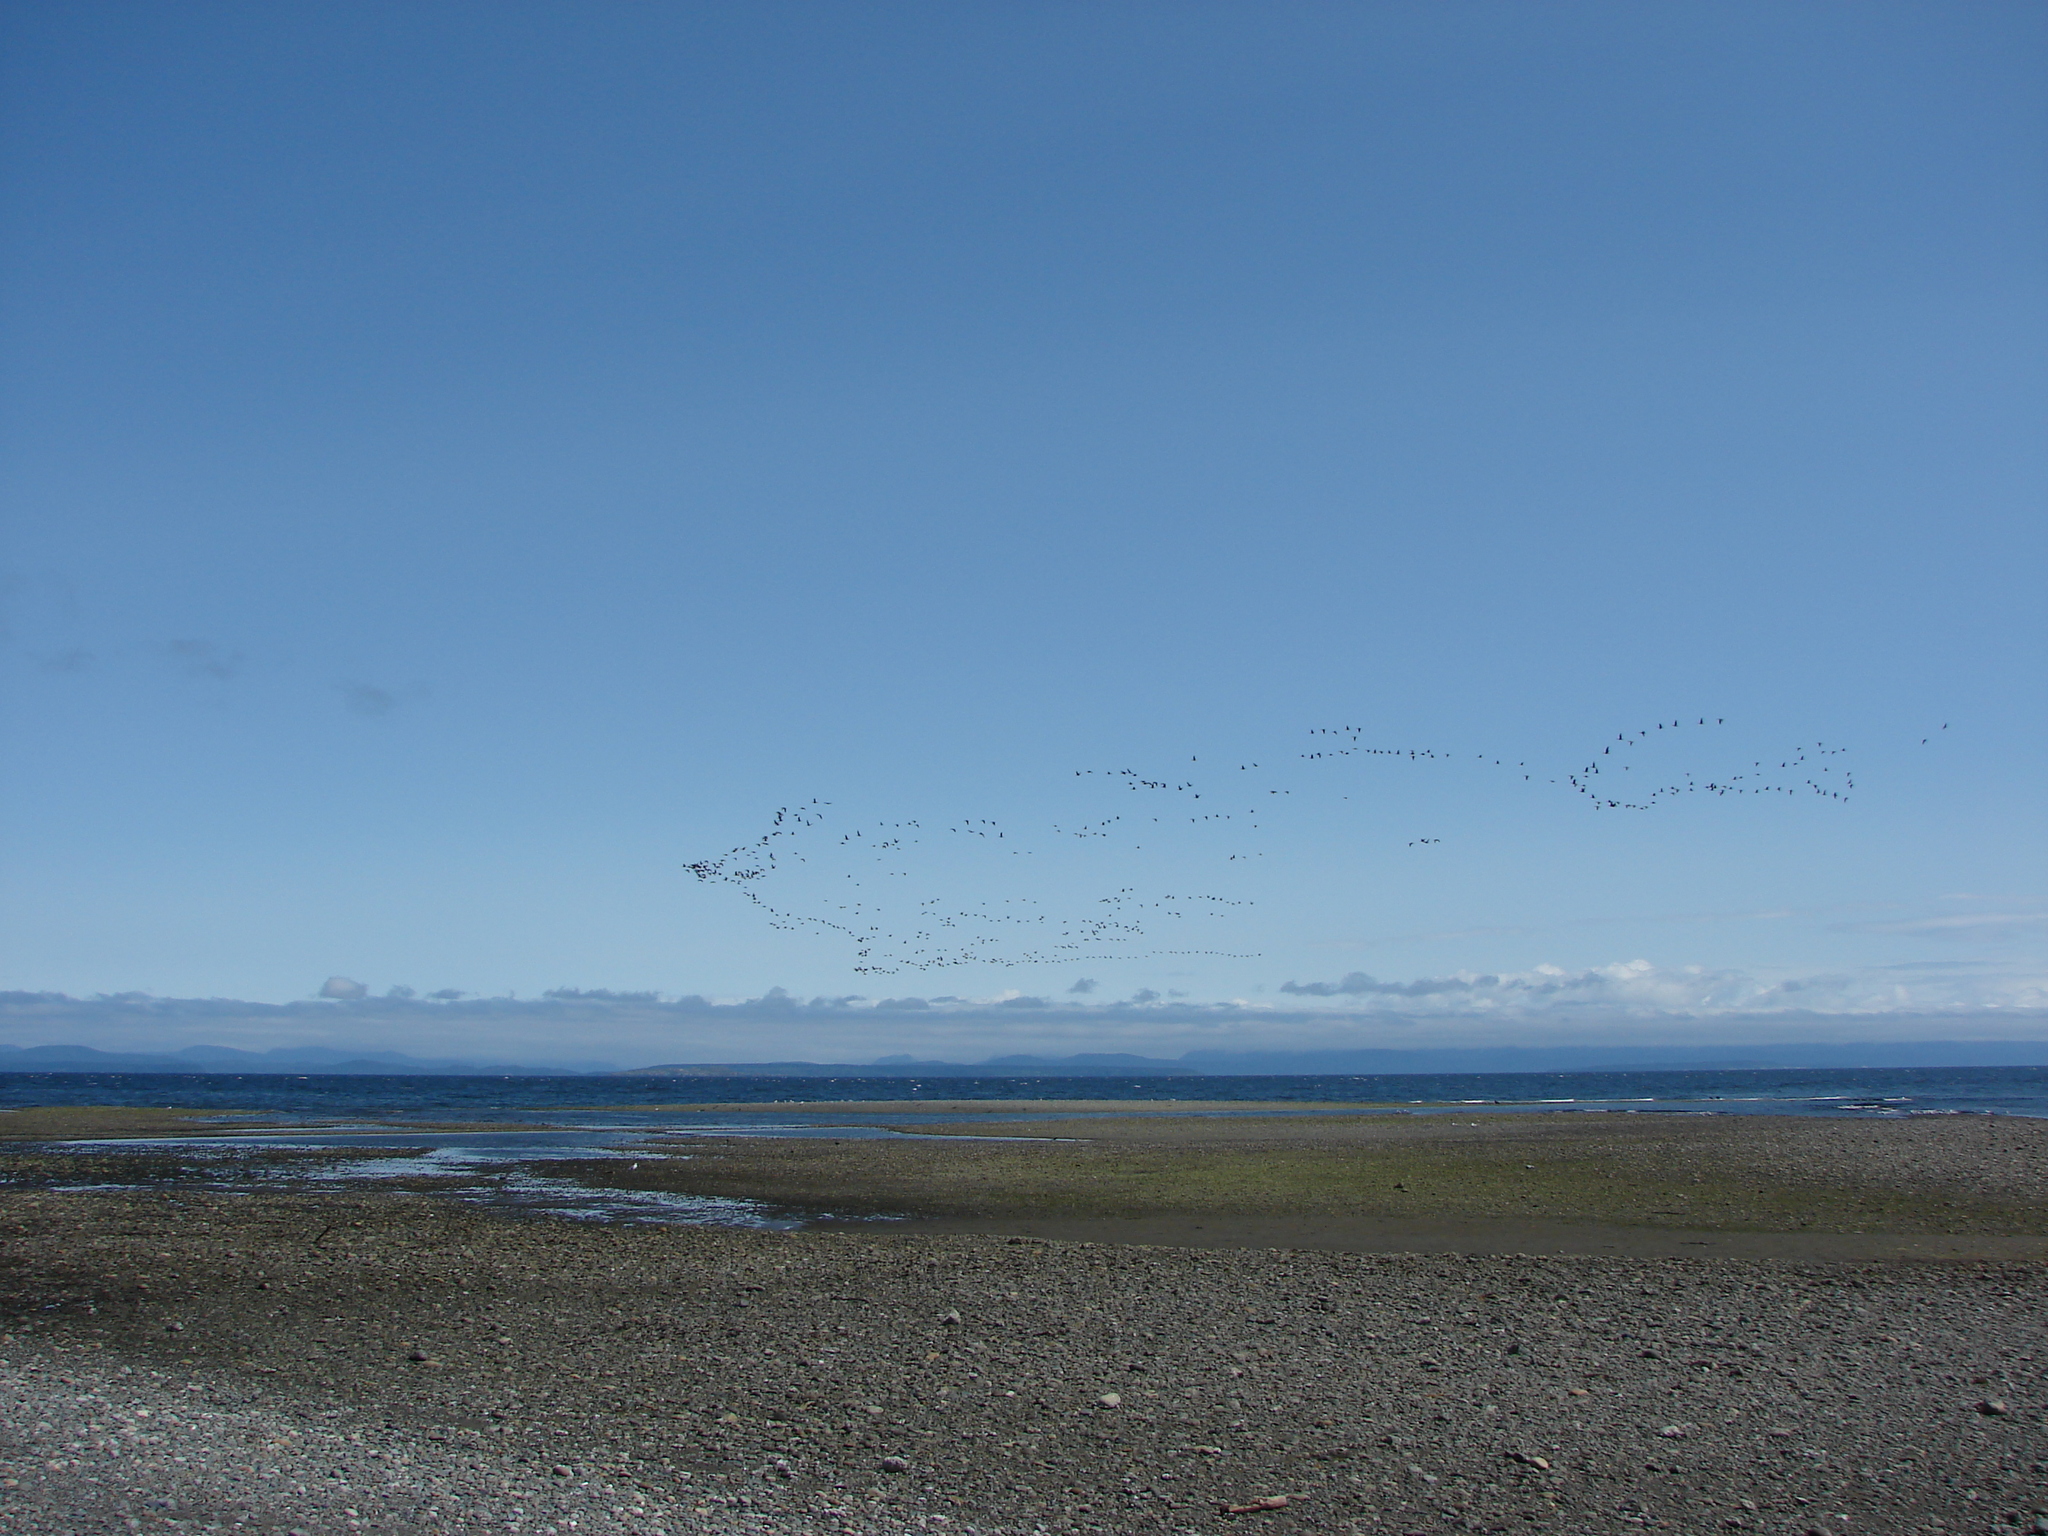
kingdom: Animalia
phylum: Chordata
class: Aves
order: Anseriformes
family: Anatidae
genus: Branta
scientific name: Branta bernicla
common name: Brant goose
